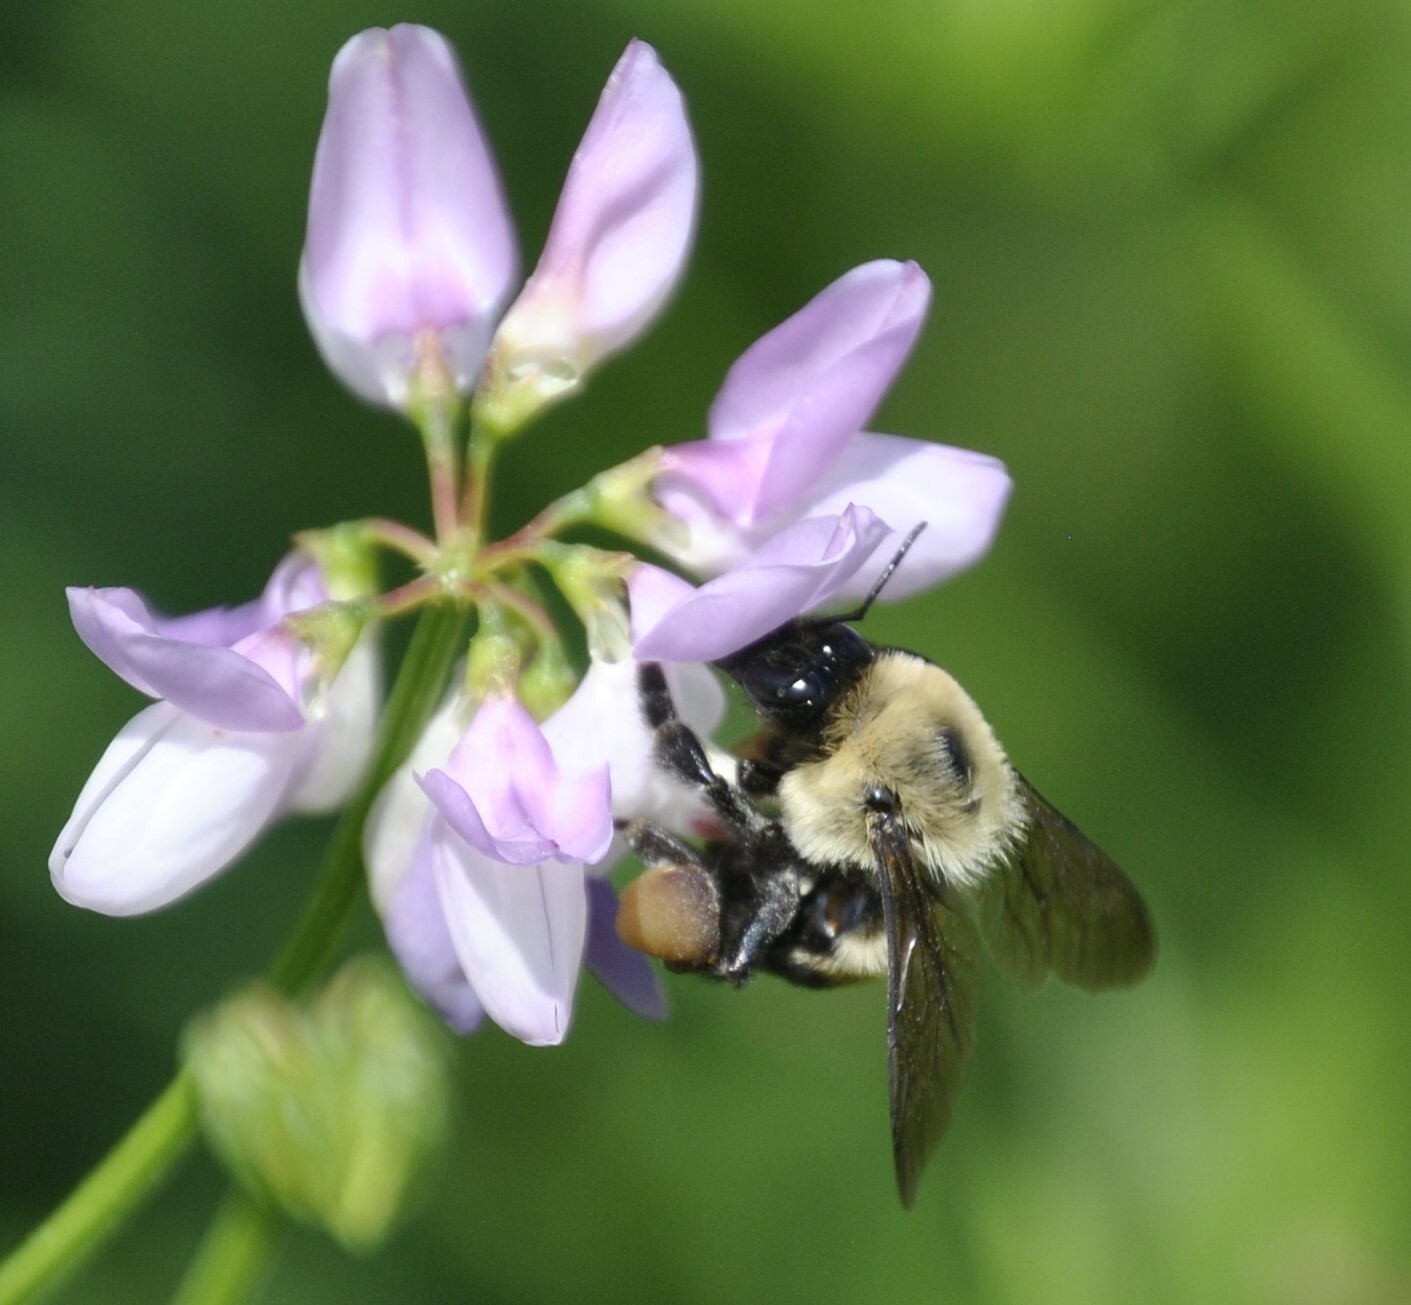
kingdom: Animalia
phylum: Arthropoda
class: Insecta
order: Hymenoptera
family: Apidae
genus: Bombus
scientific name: Bombus griseocollis
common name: Brown-belted bumble bee
